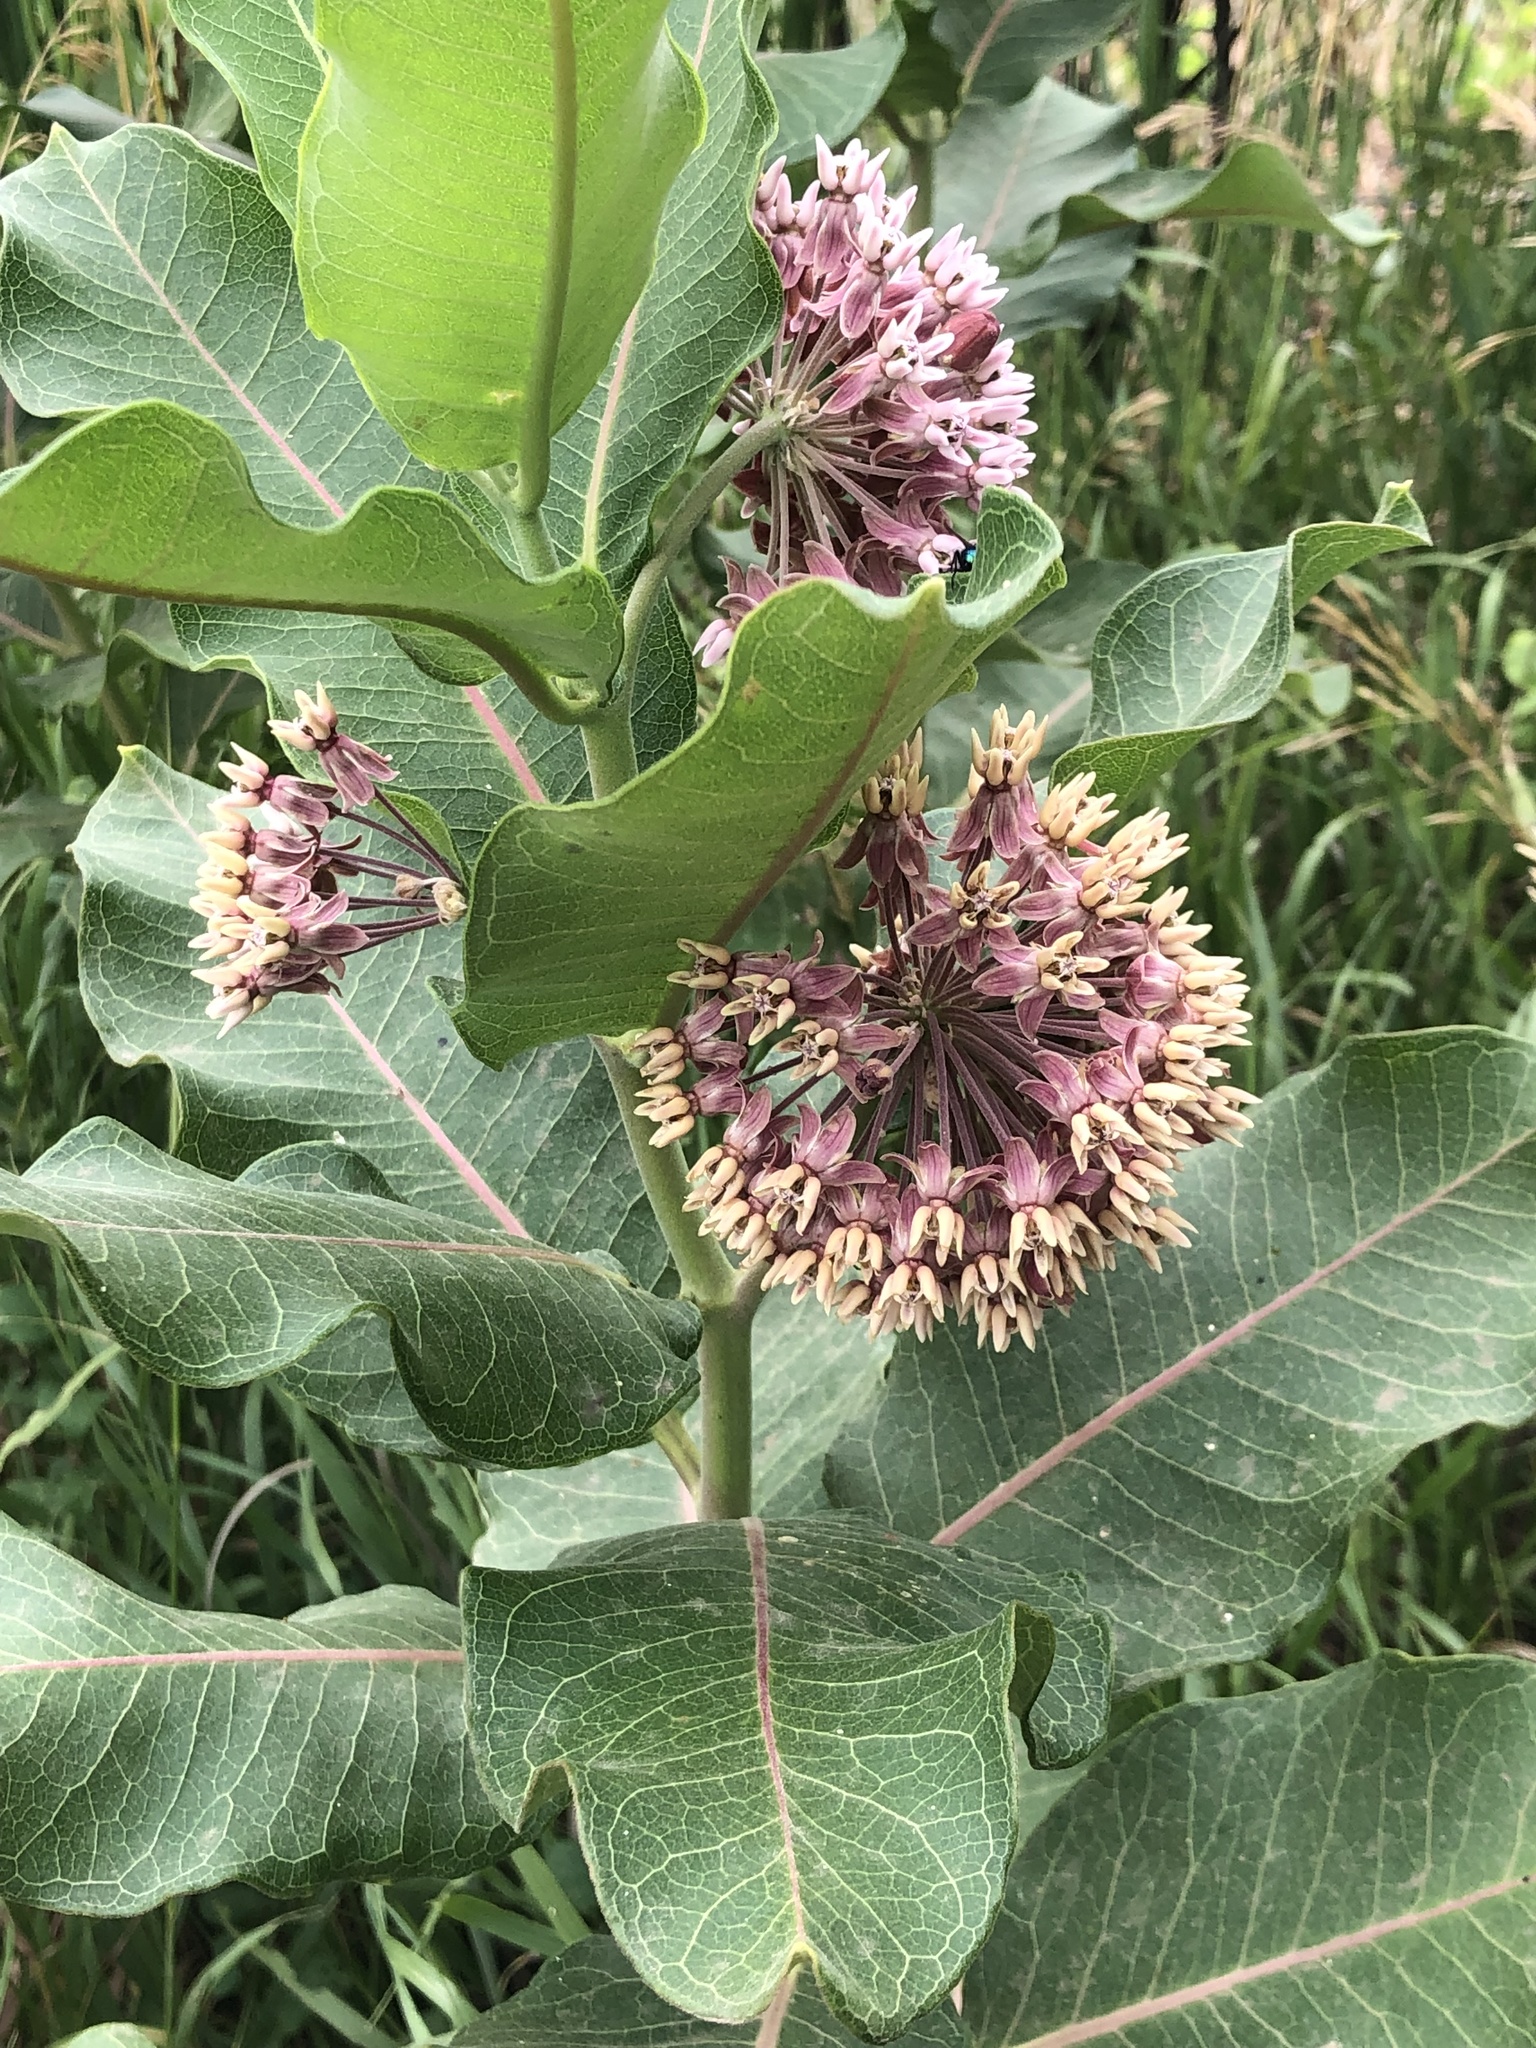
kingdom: Plantae
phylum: Tracheophyta
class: Magnoliopsida
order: Gentianales
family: Apocynaceae
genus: Asclepias
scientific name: Asclepias
